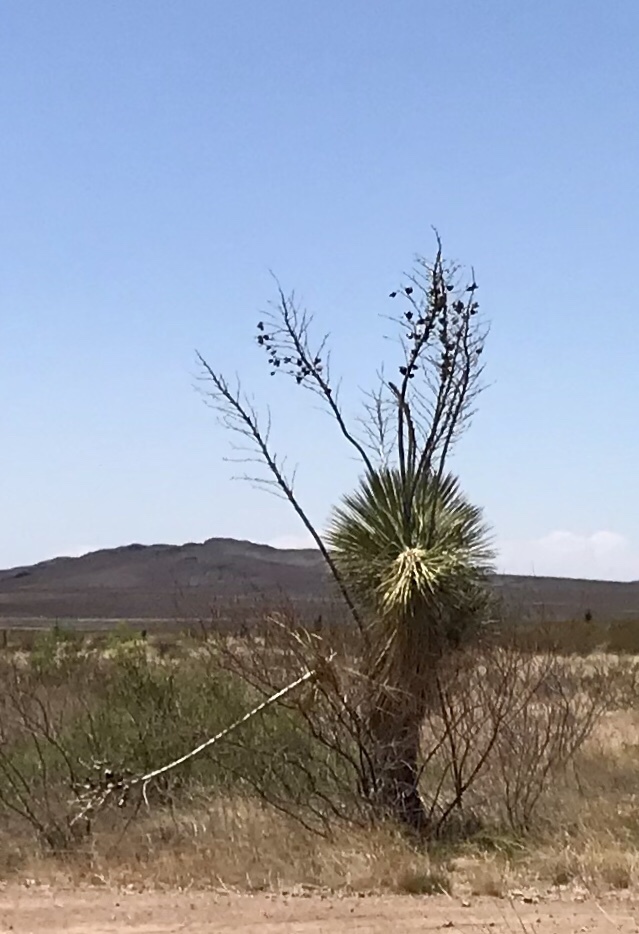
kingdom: Plantae
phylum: Tracheophyta
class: Liliopsida
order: Asparagales
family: Asparagaceae
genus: Yucca
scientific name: Yucca elata
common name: Palmella
